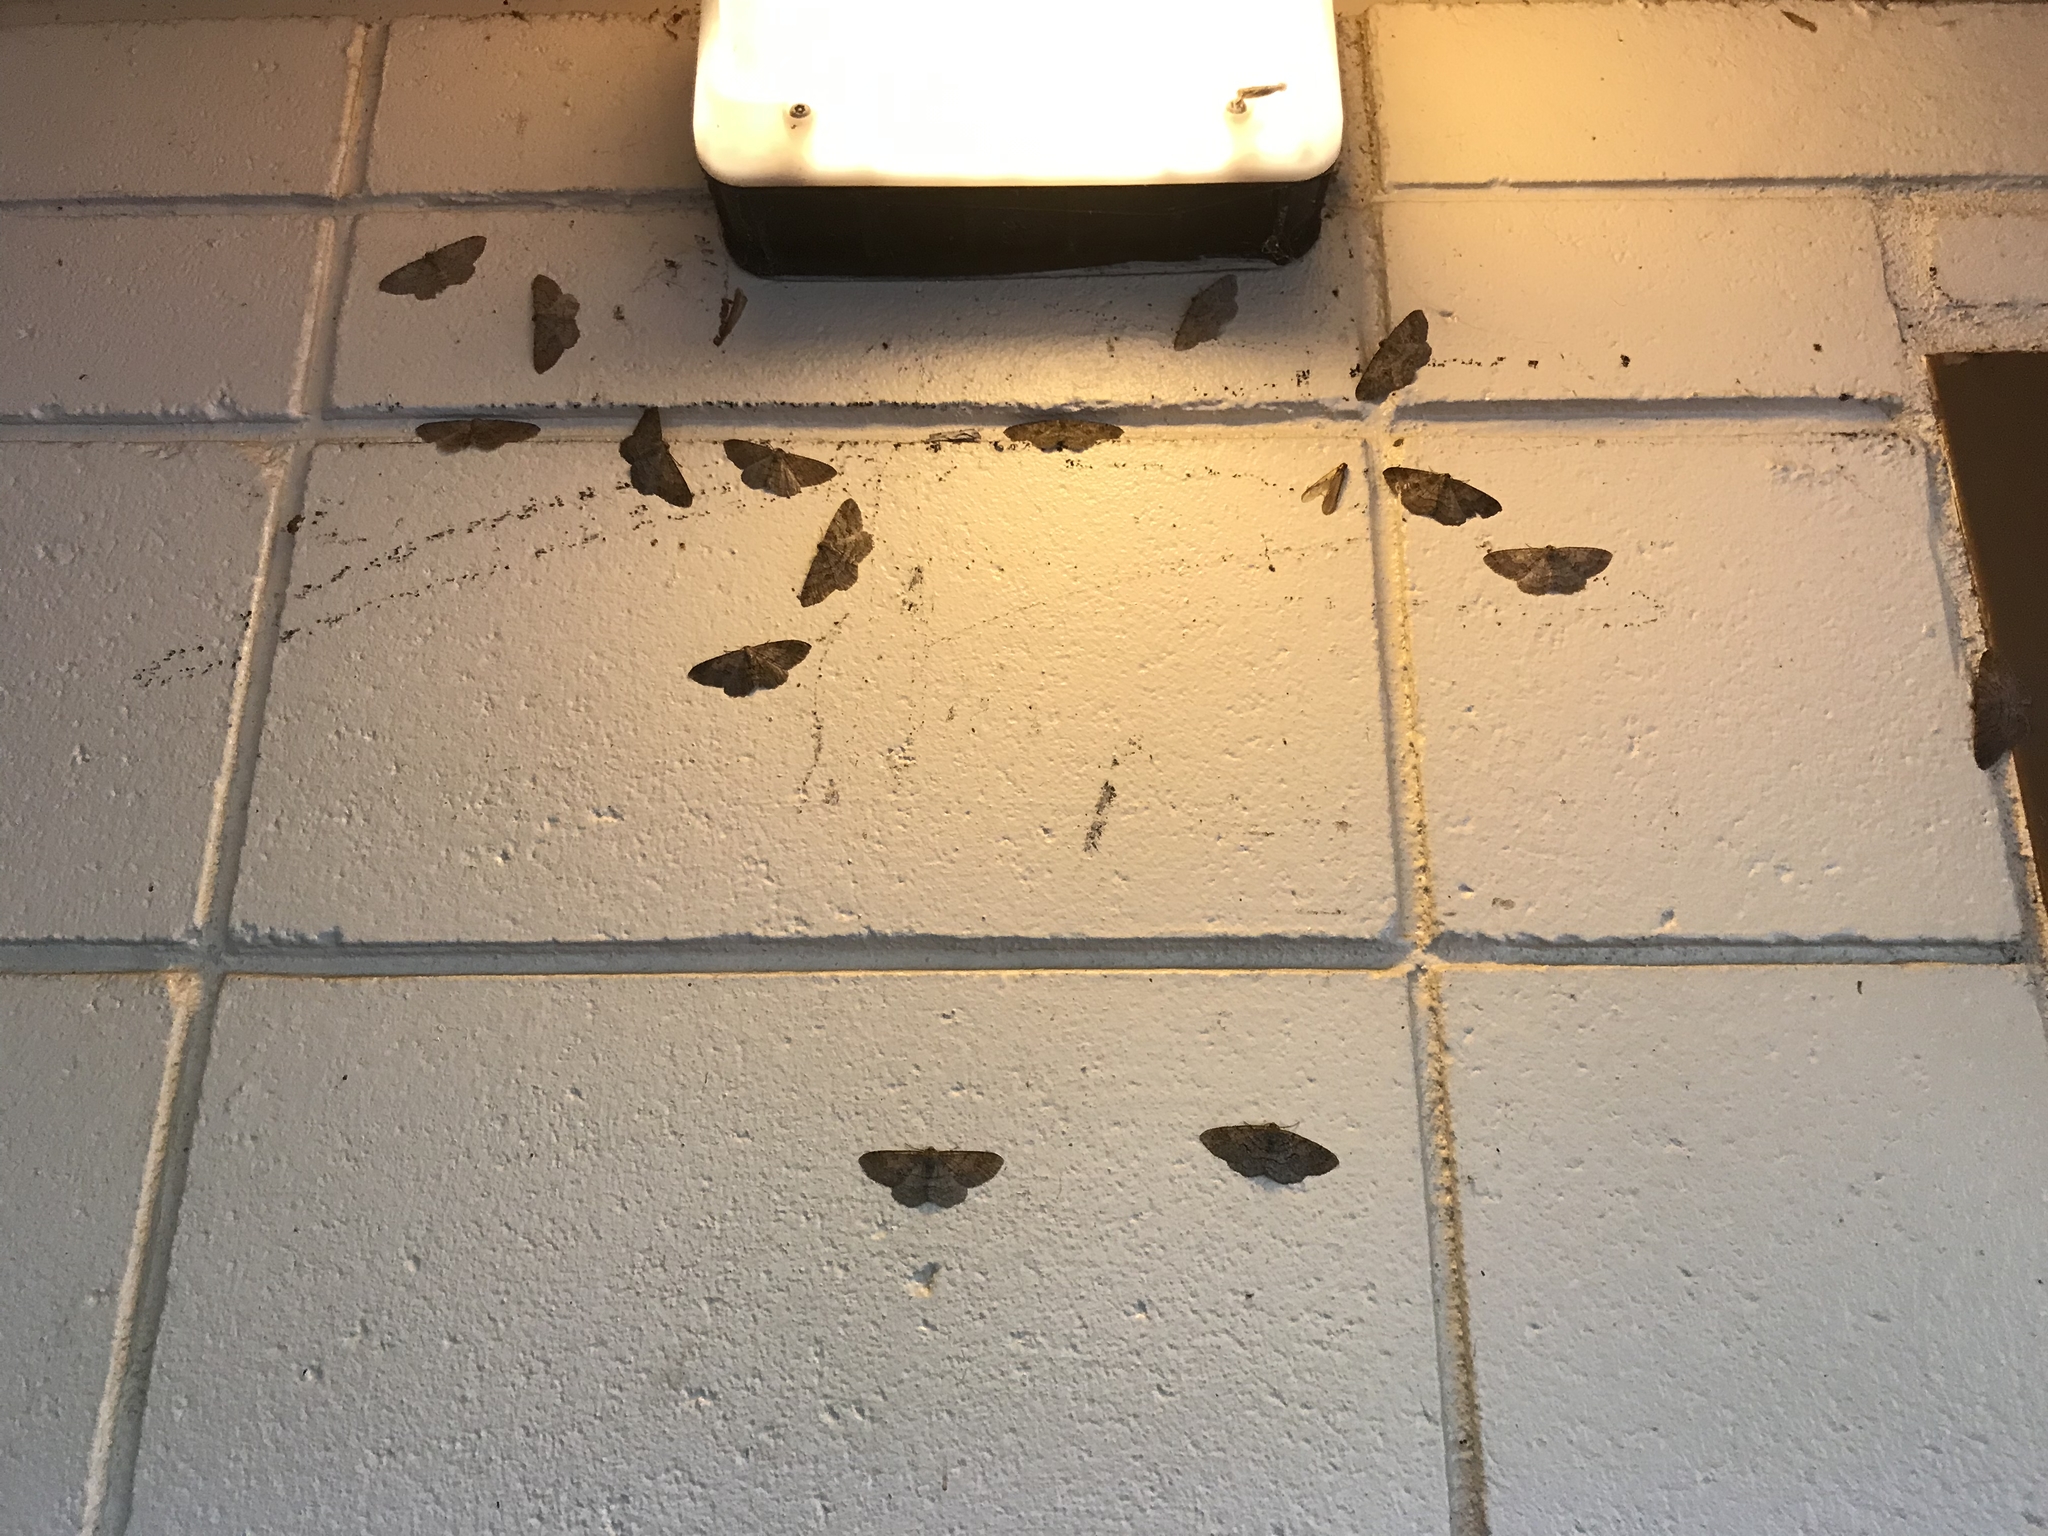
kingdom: Animalia
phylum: Arthropoda
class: Insecta
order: Lepidoptera
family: Geometridae
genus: Melanolophia
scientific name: Melanolophia imitata
